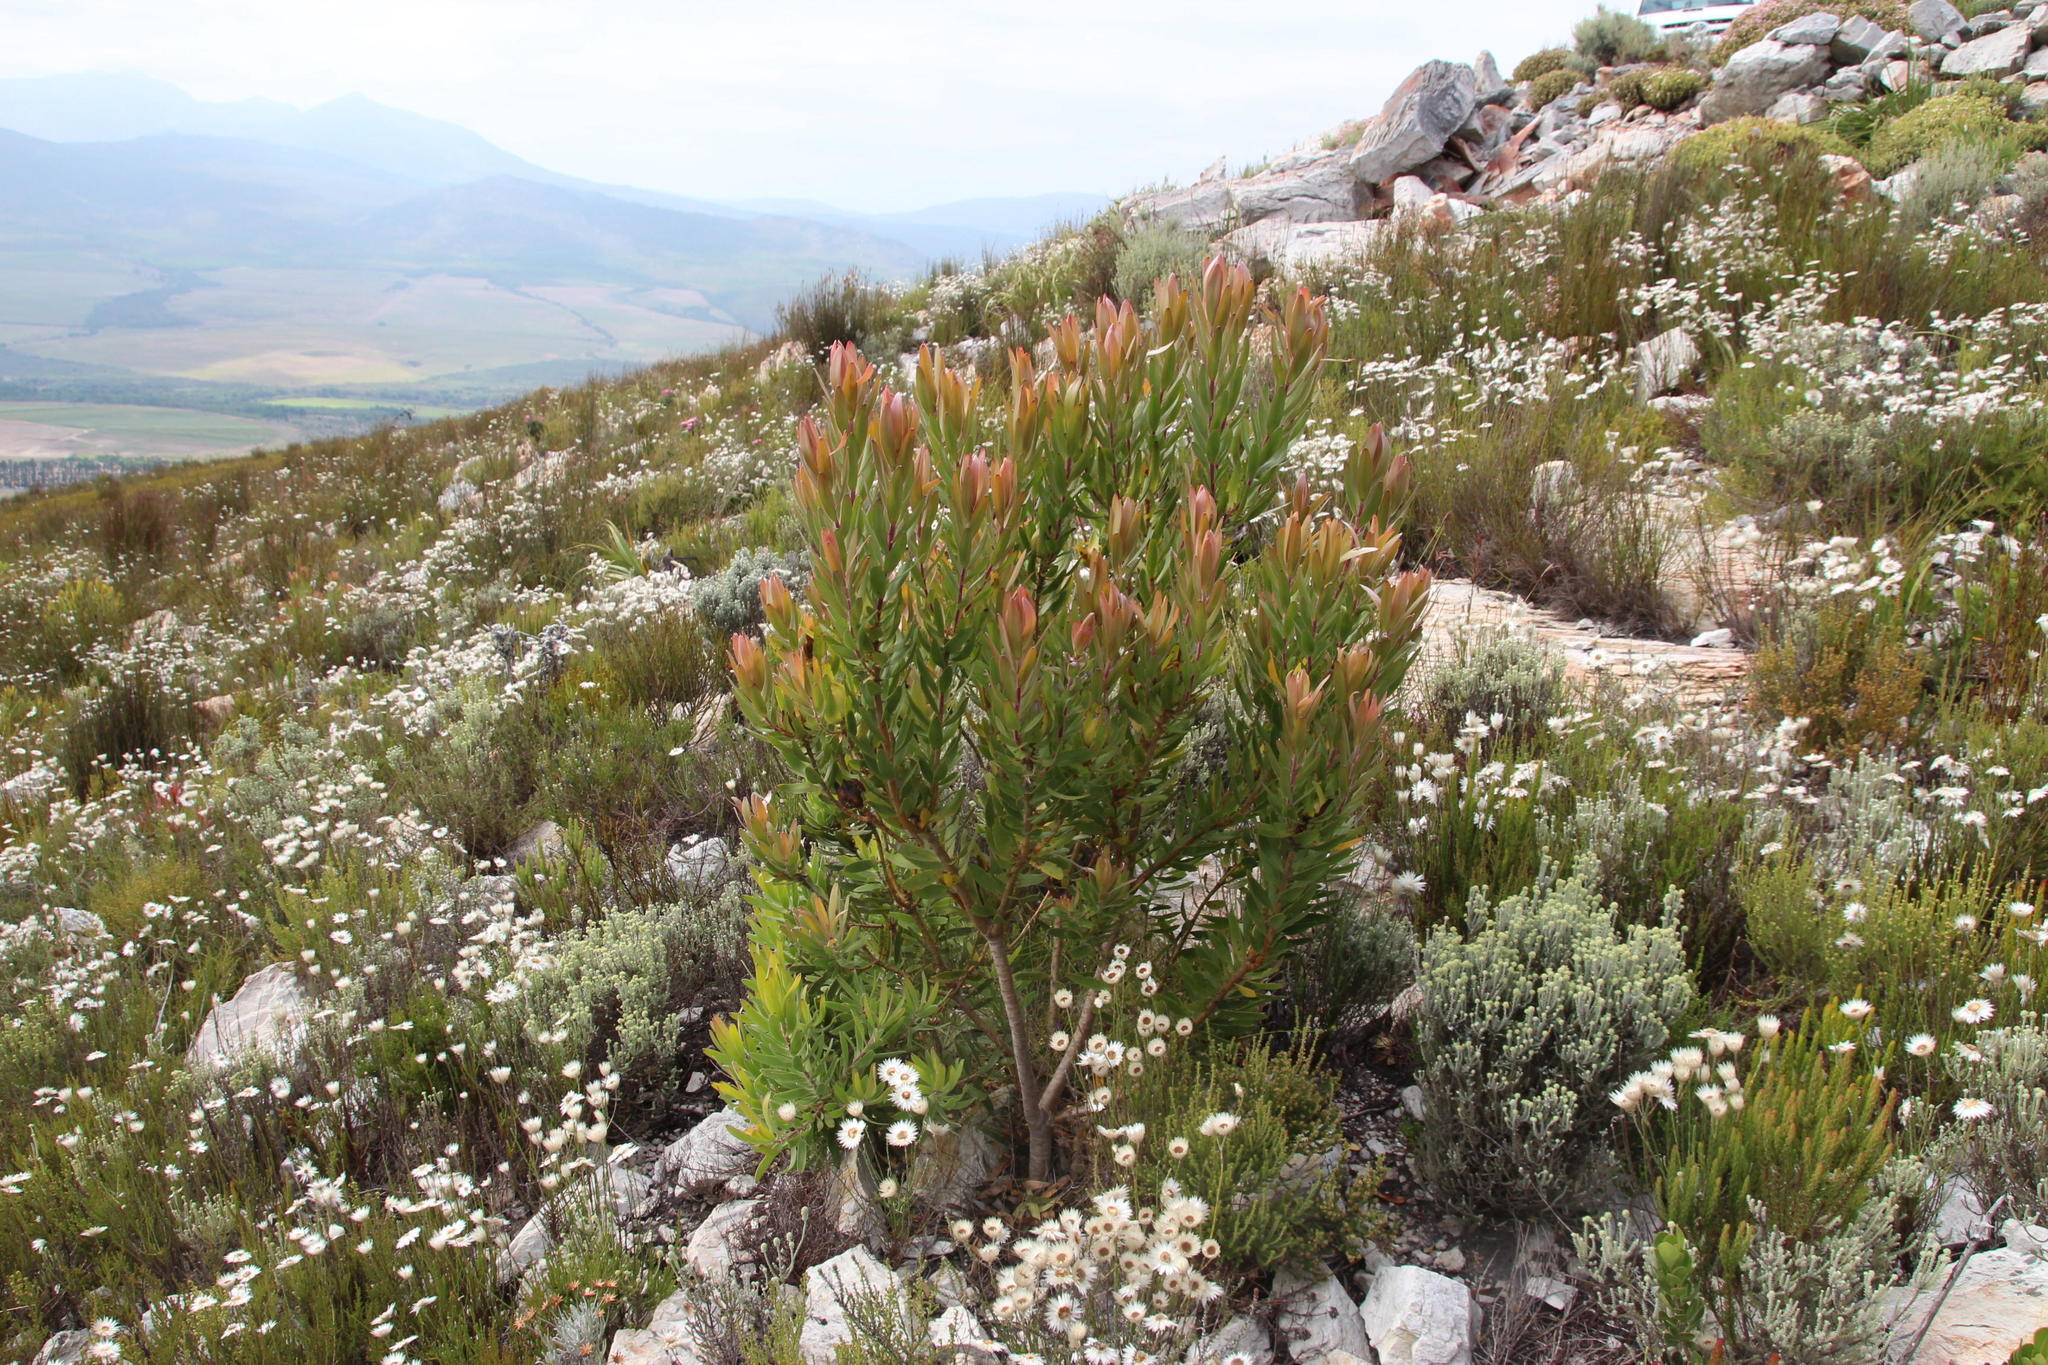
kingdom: Plantae
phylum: Tracheophyta
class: Magnoliopsida
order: Proteales
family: Proteaceae
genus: Leucadendron
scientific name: Leucadendron laureolum
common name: Golden sunshinebush
